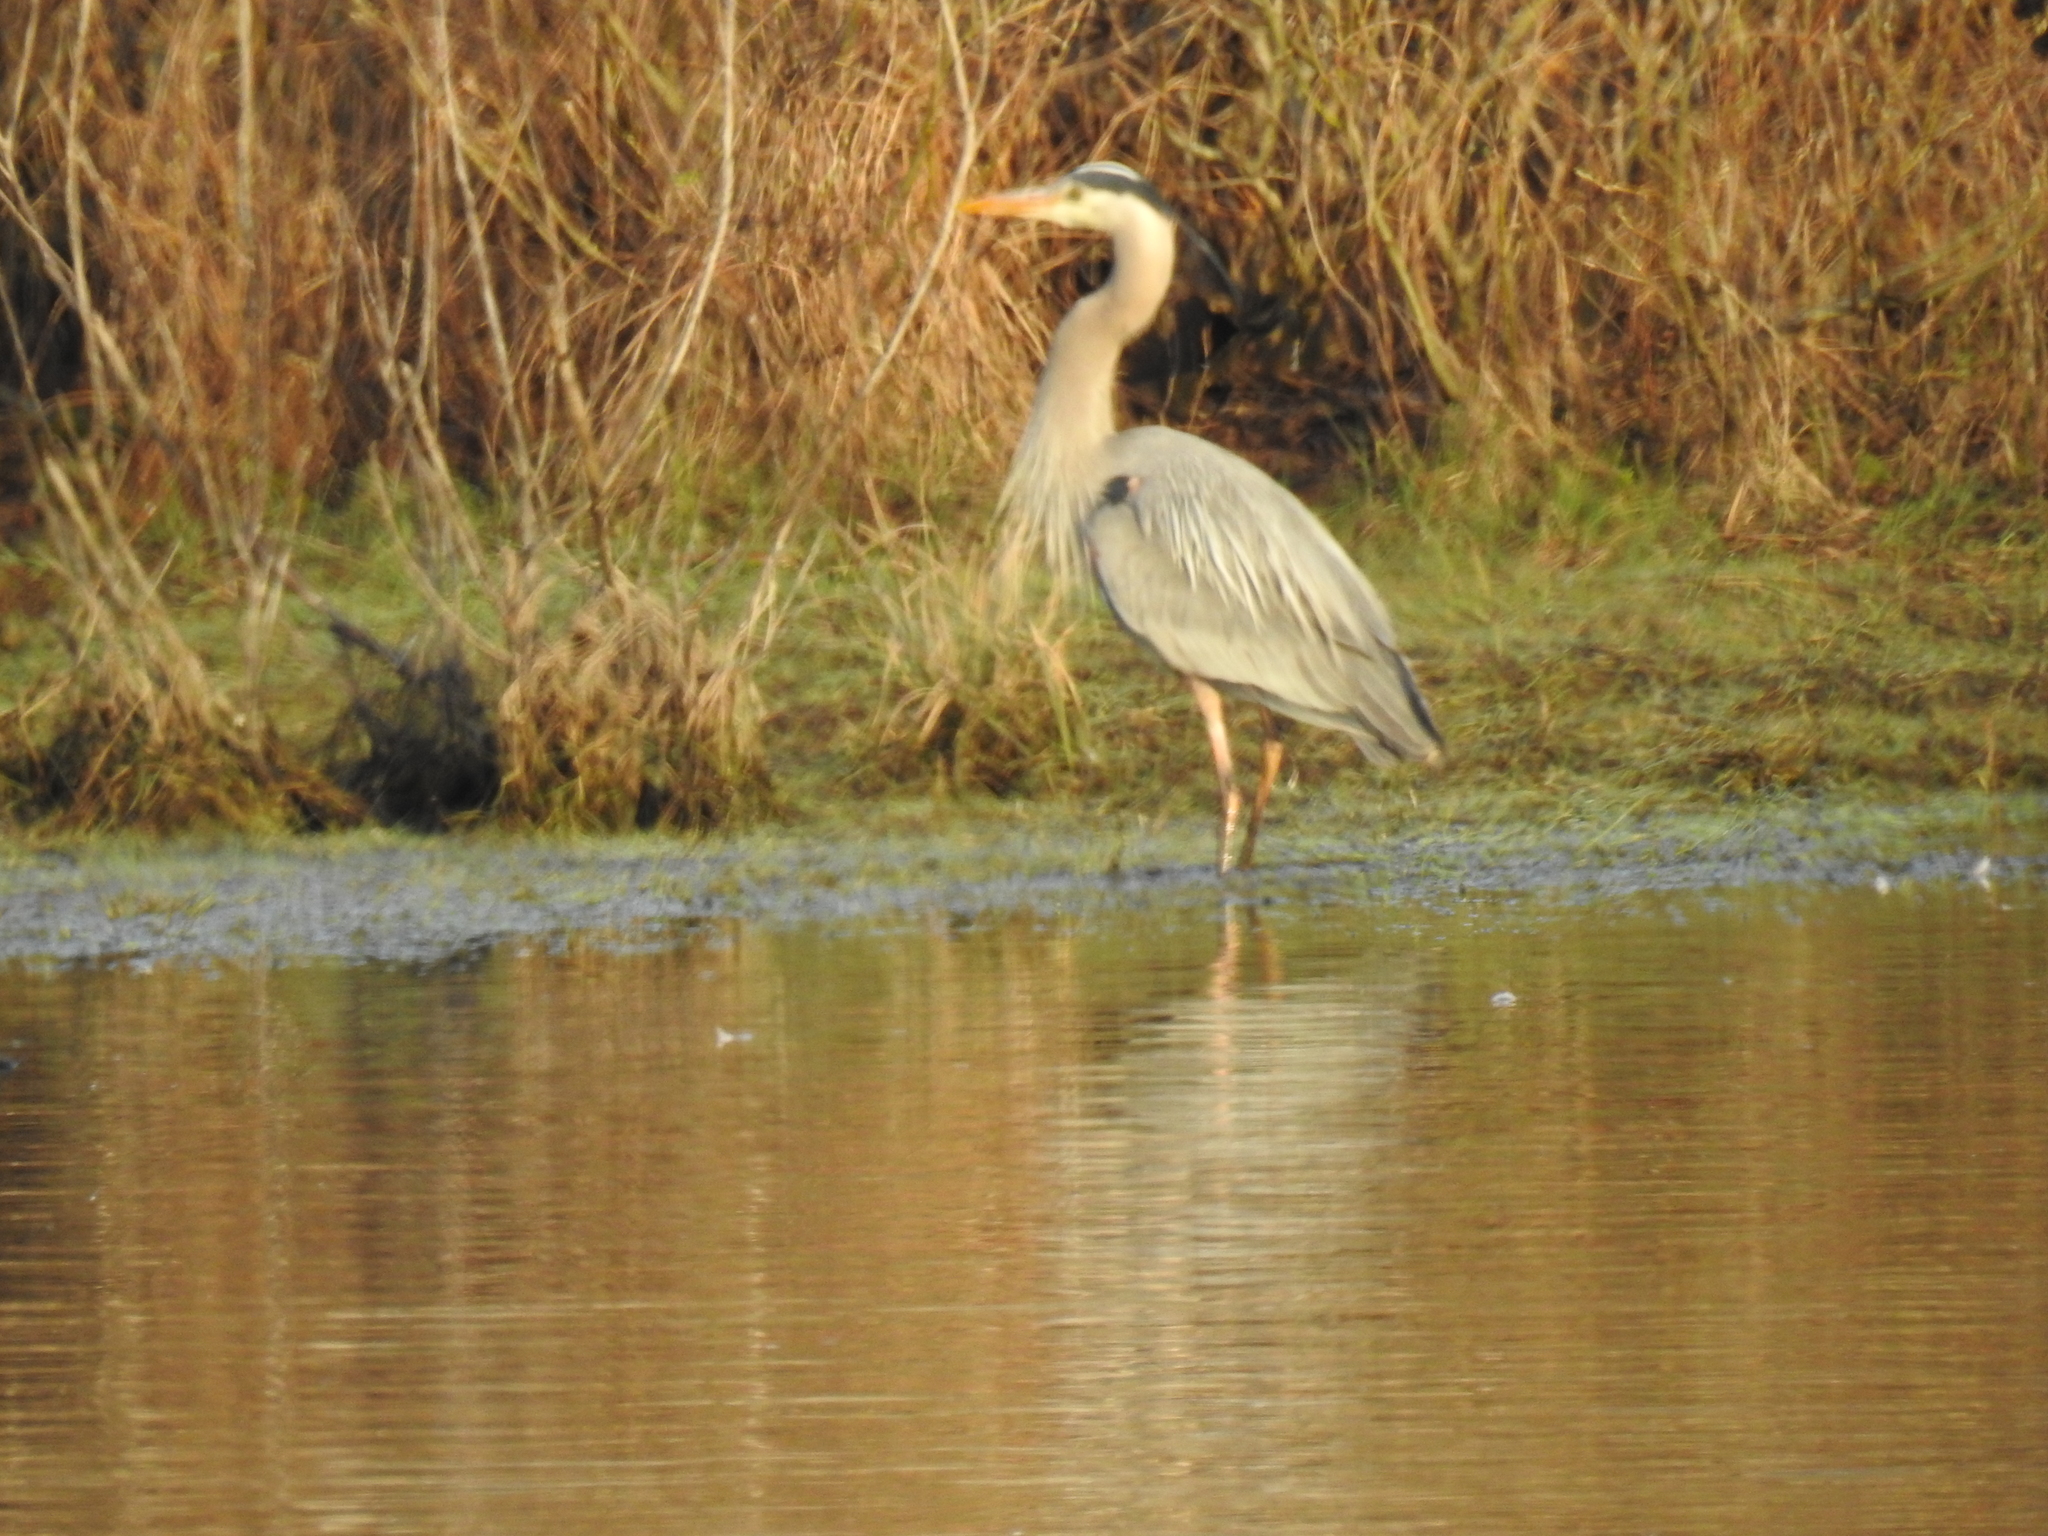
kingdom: Animalia
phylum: Chordata
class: Aves
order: Pelecaniformes
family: Ardeidae
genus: Ardea
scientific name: Ardea herodias
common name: Great blue heron
